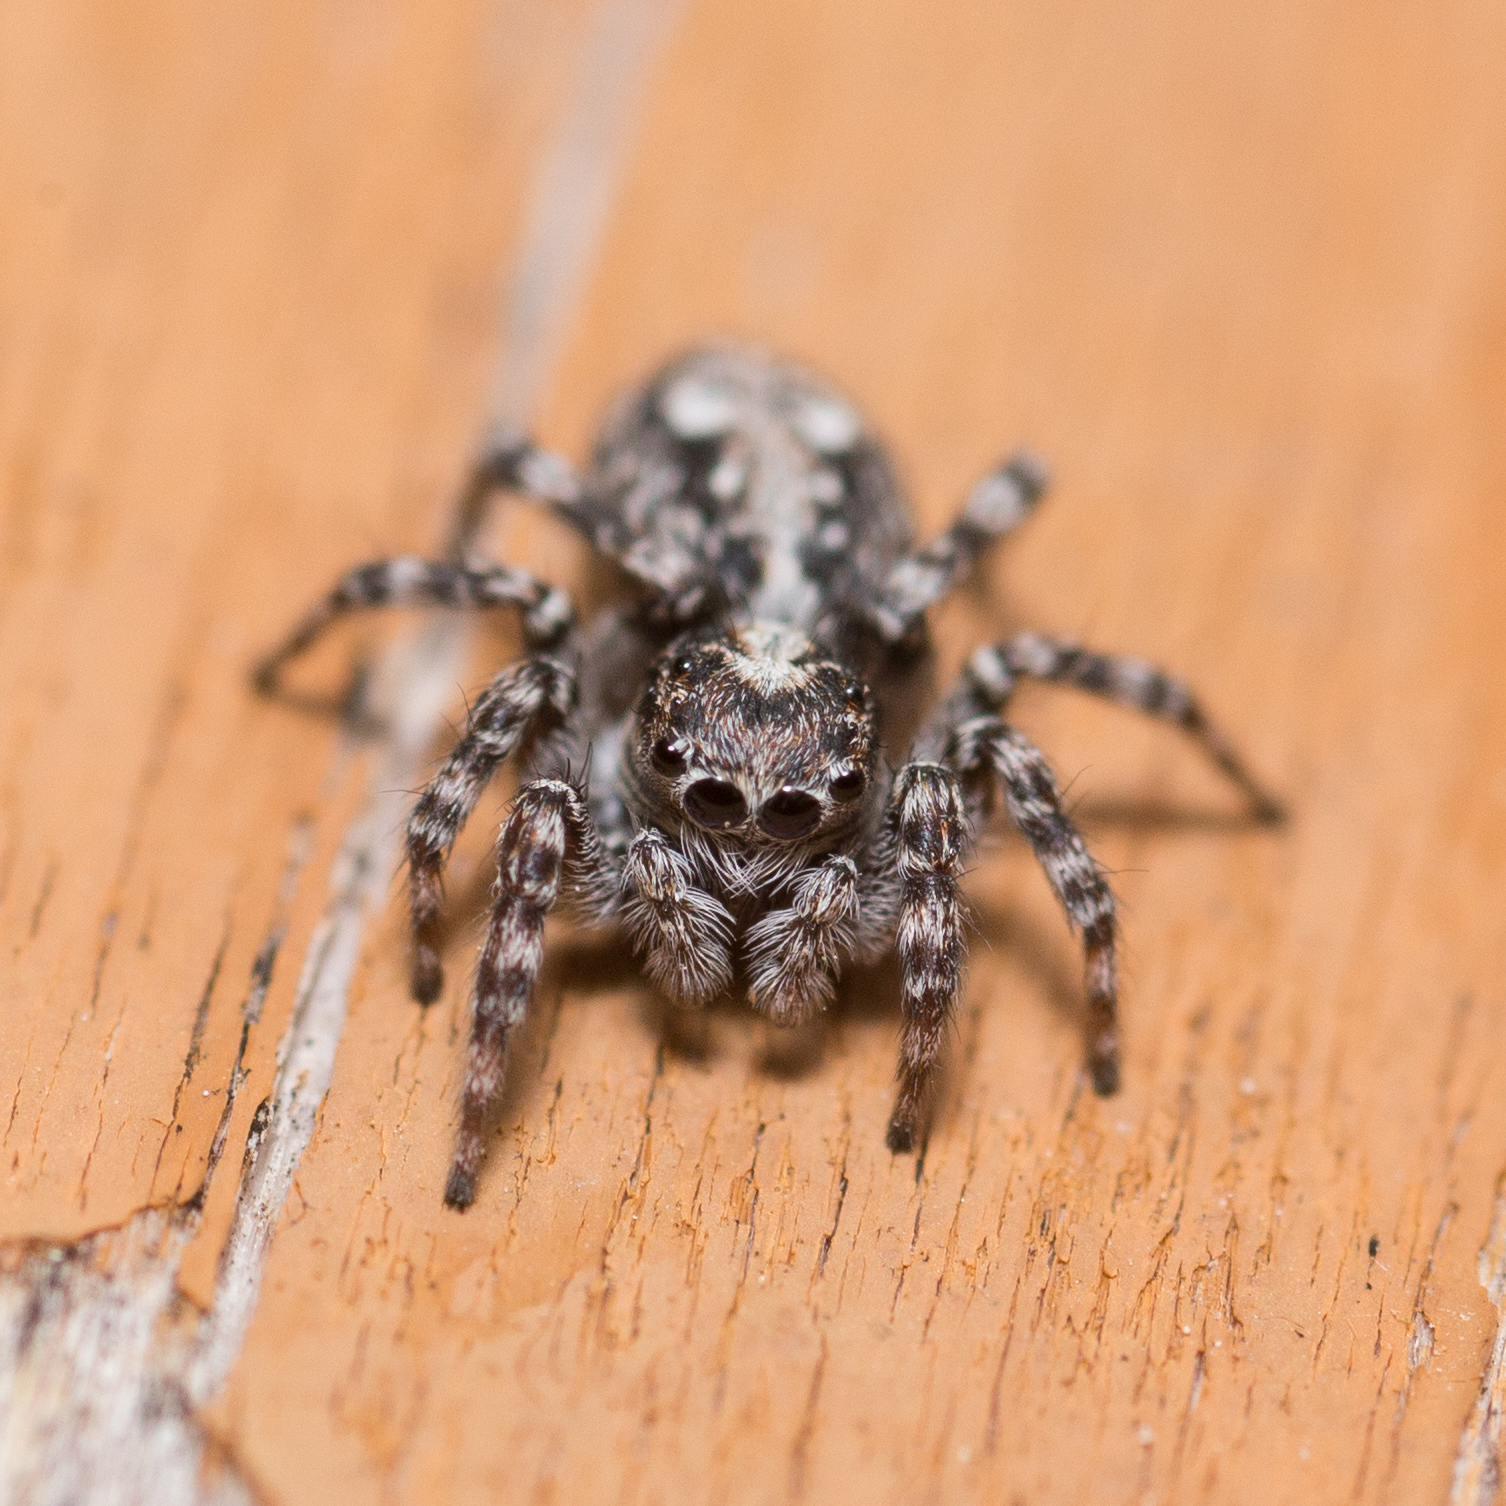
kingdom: Animalia
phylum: Arthropoda
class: Arachnida
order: Araneae
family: Salticidae
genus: Attulus
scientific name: Attulus terebratus
